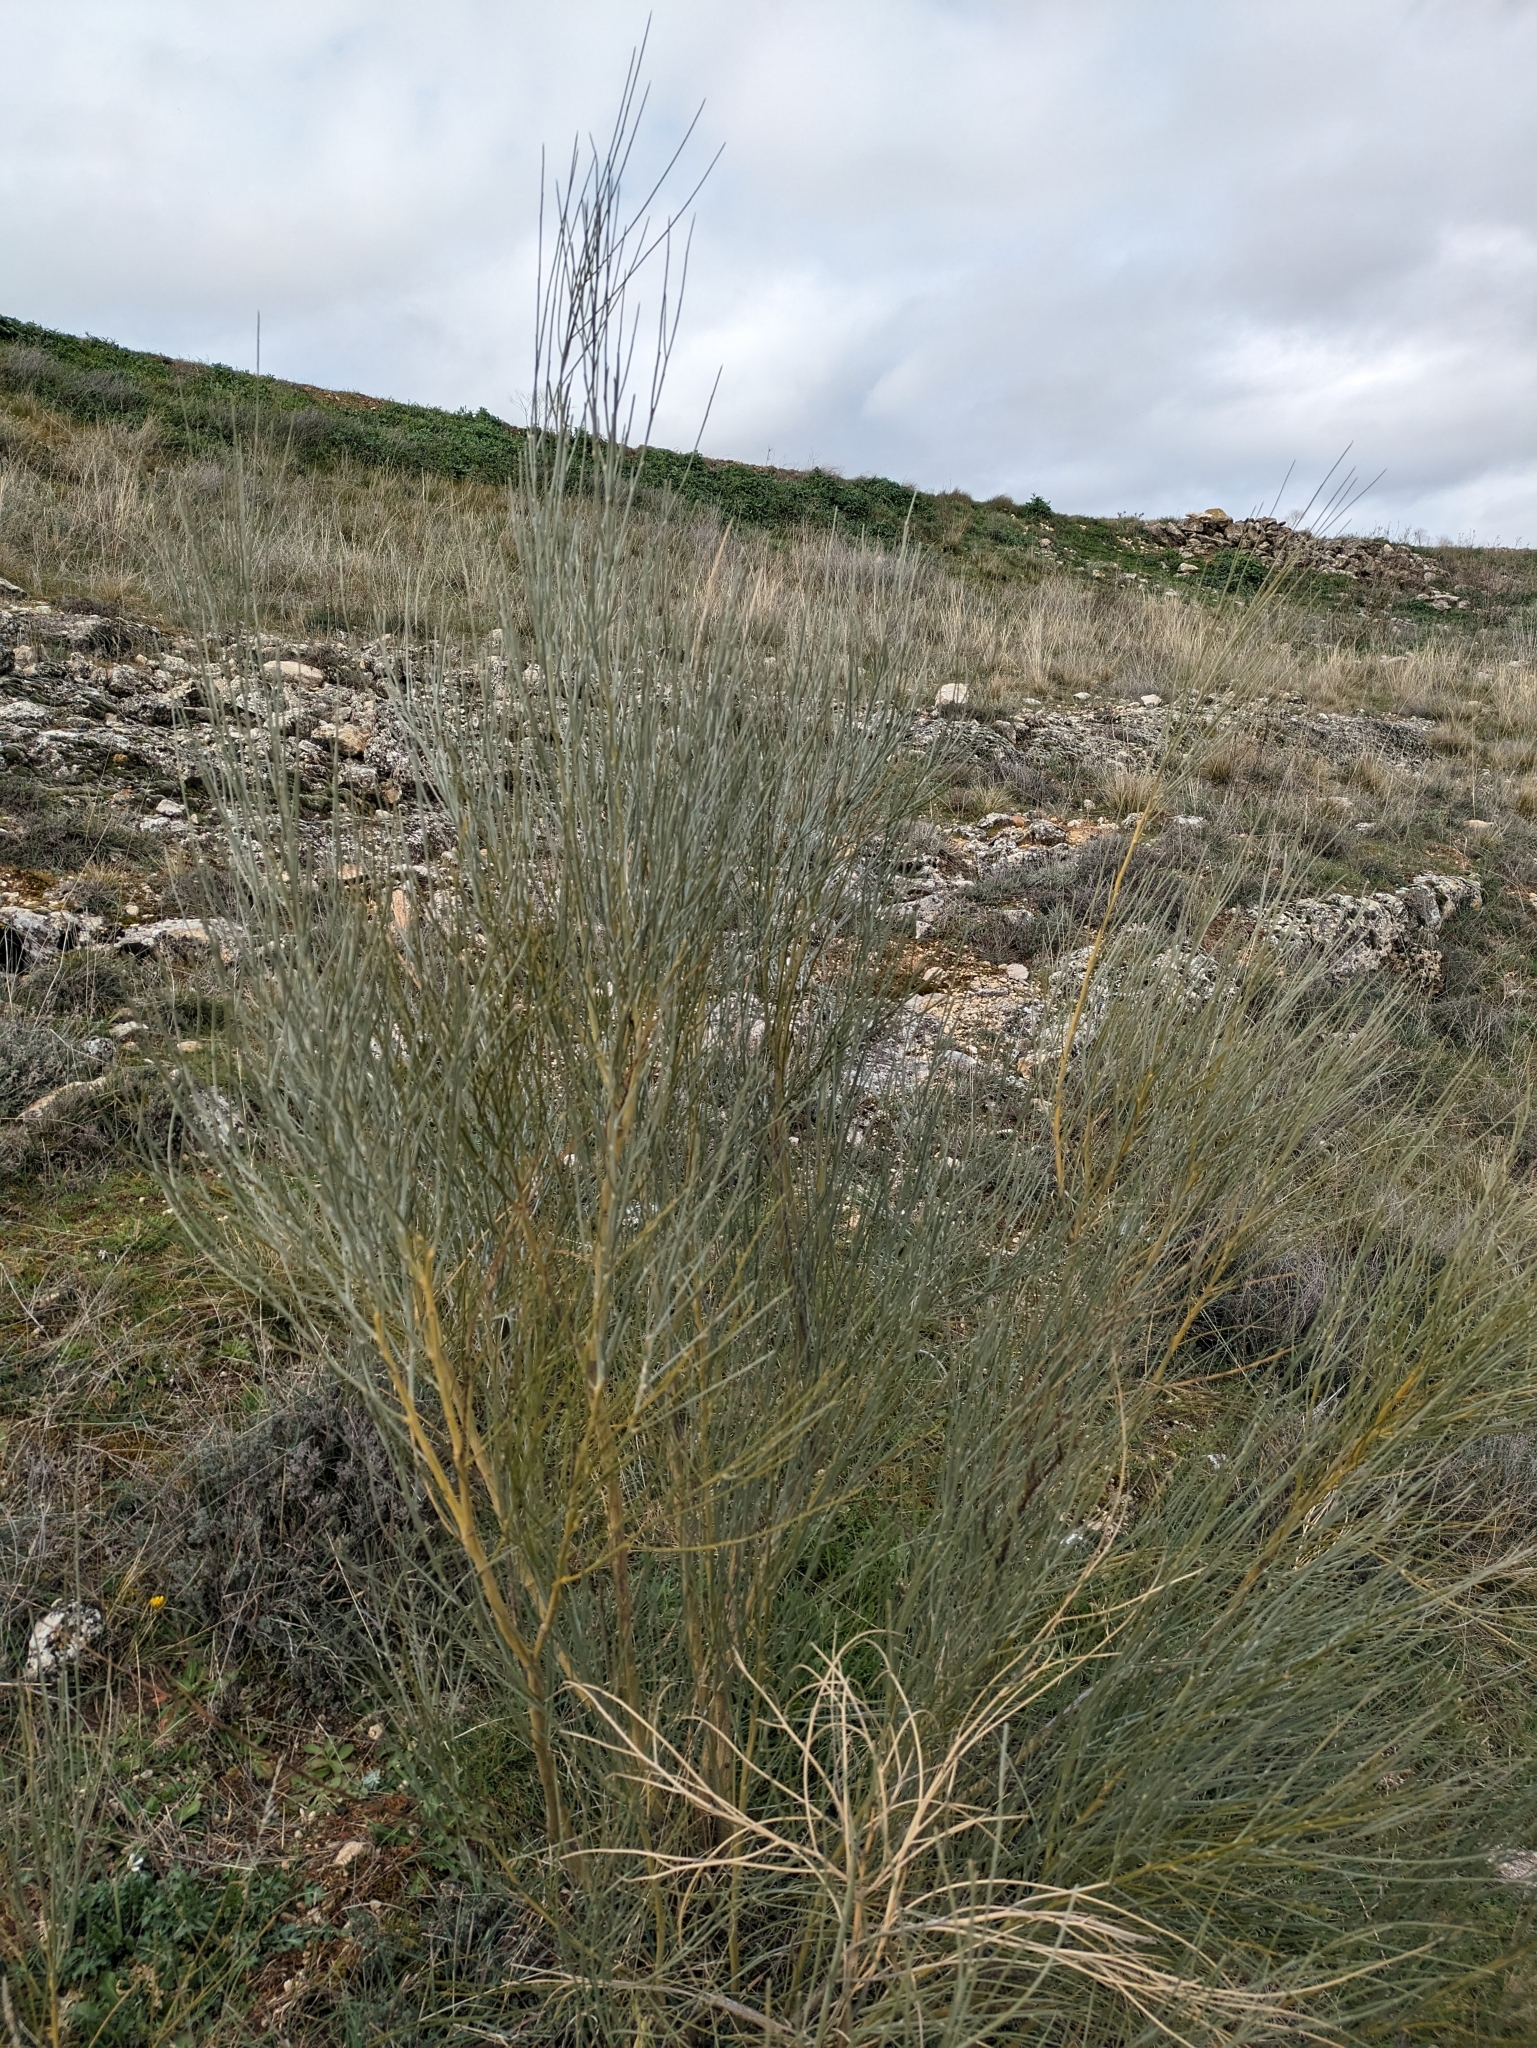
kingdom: Plantae
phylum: Tracheophyta
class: Magnoliopsida
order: Fabales
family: Fabaceae
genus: Retama
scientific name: Retama sphaerocarpa
